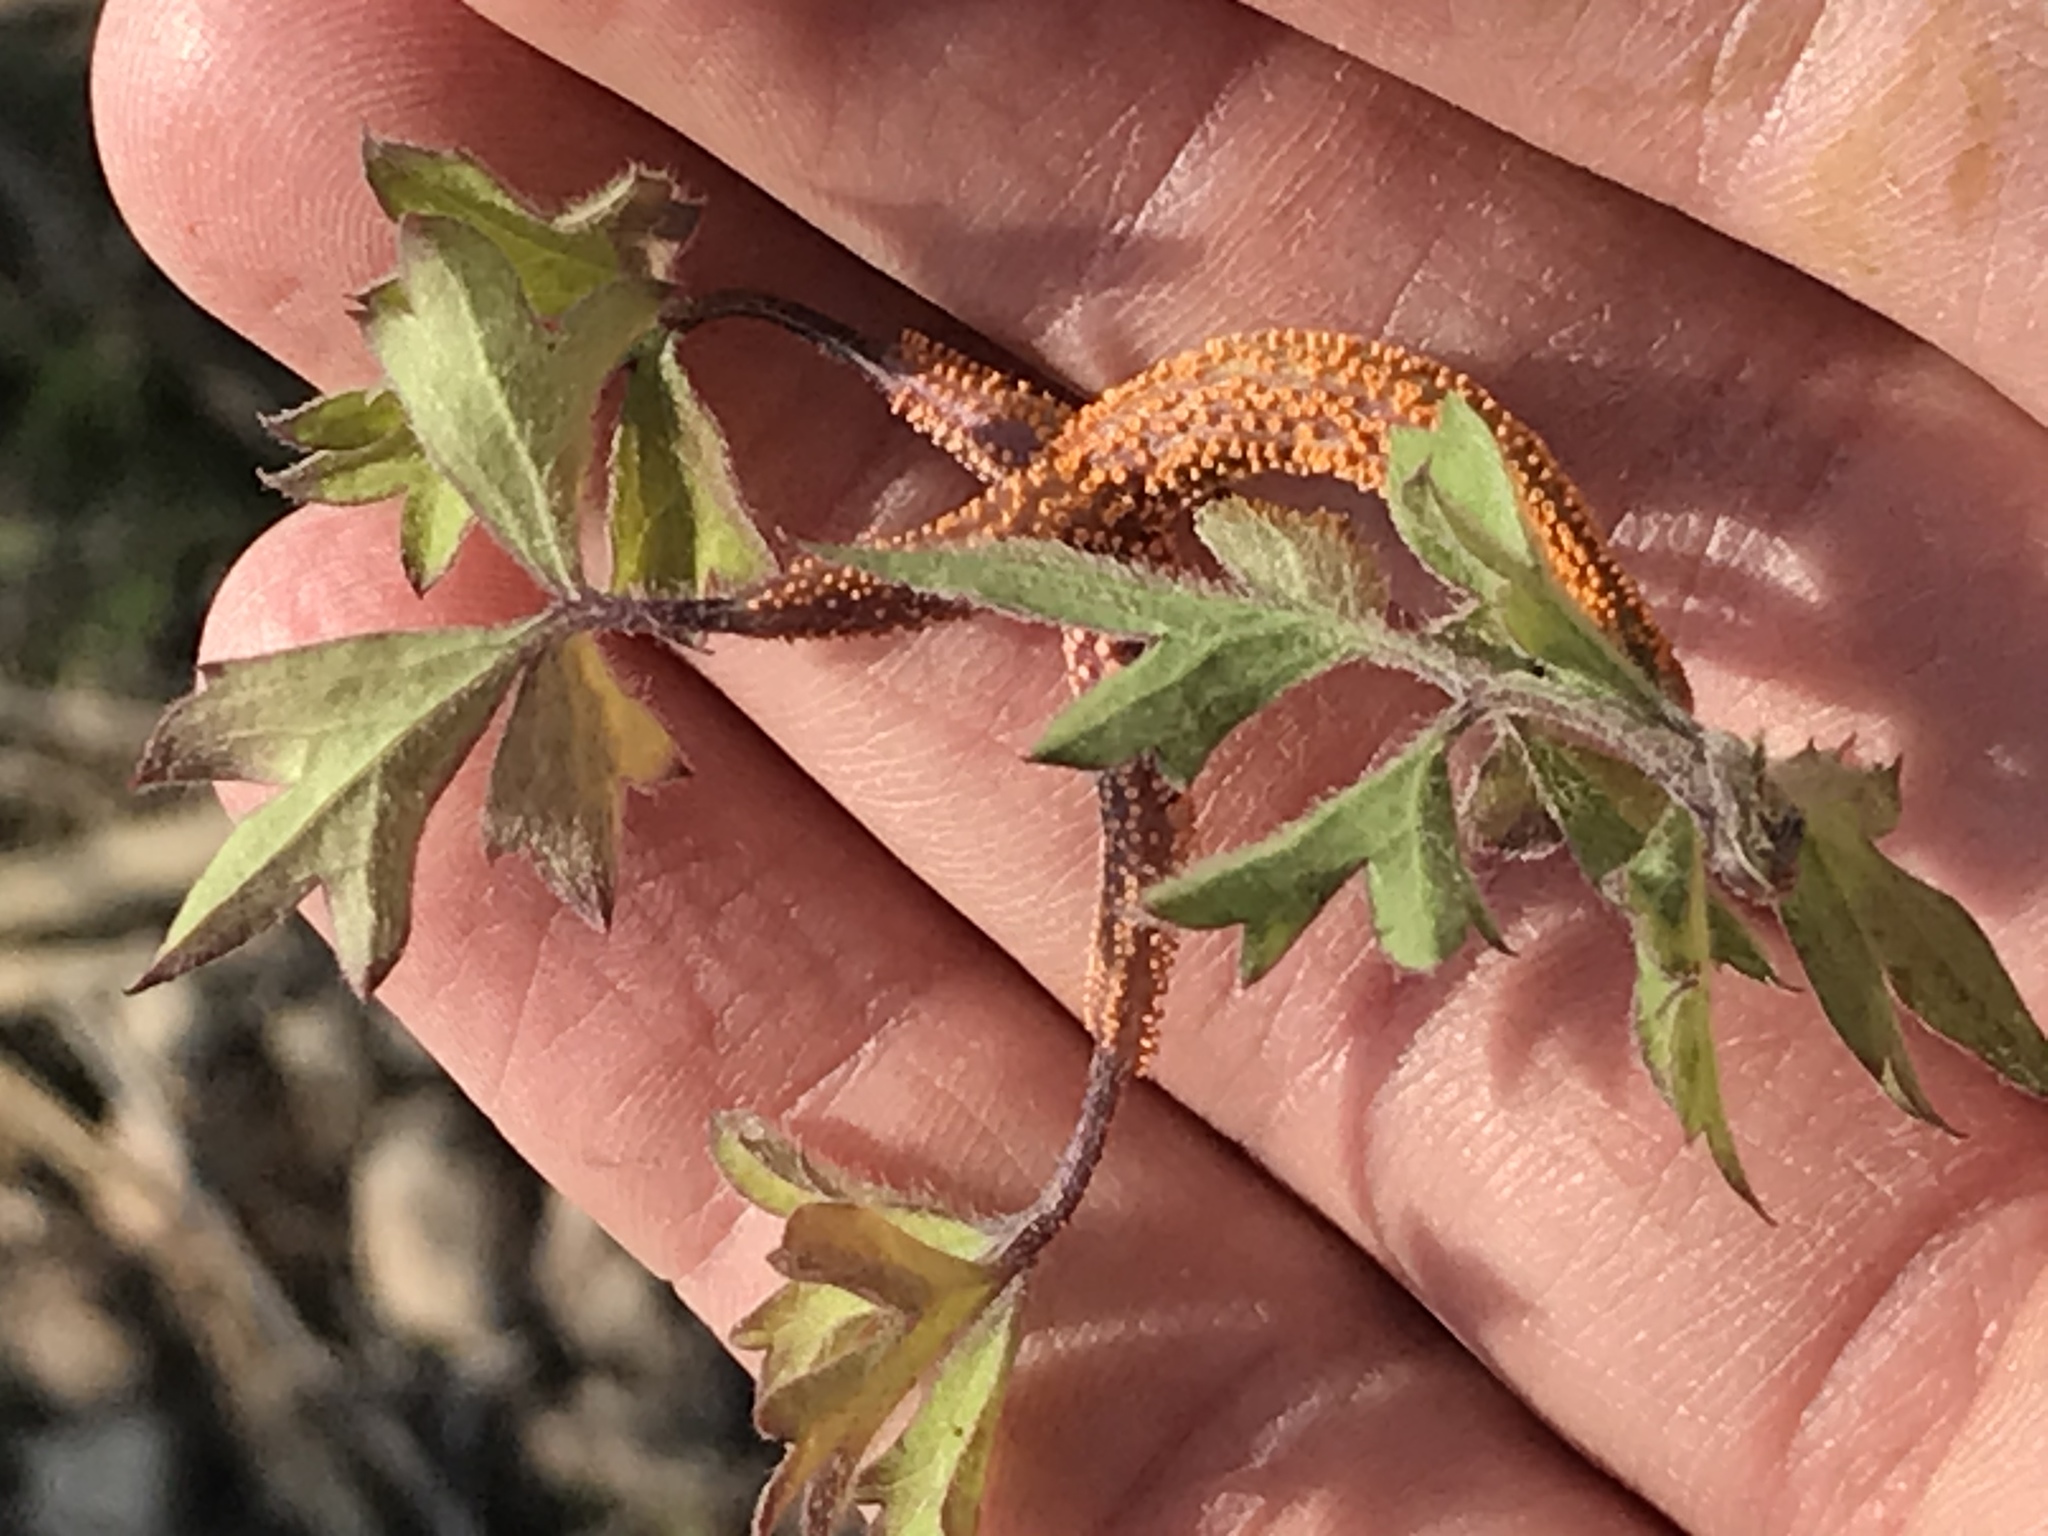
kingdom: Fungi
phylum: Basidiomycota
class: Pucciniomycetes
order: Pucciniales
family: Pucciniaceae
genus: Puccinia
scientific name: Puccinia recondita
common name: Brown rust of wheat
